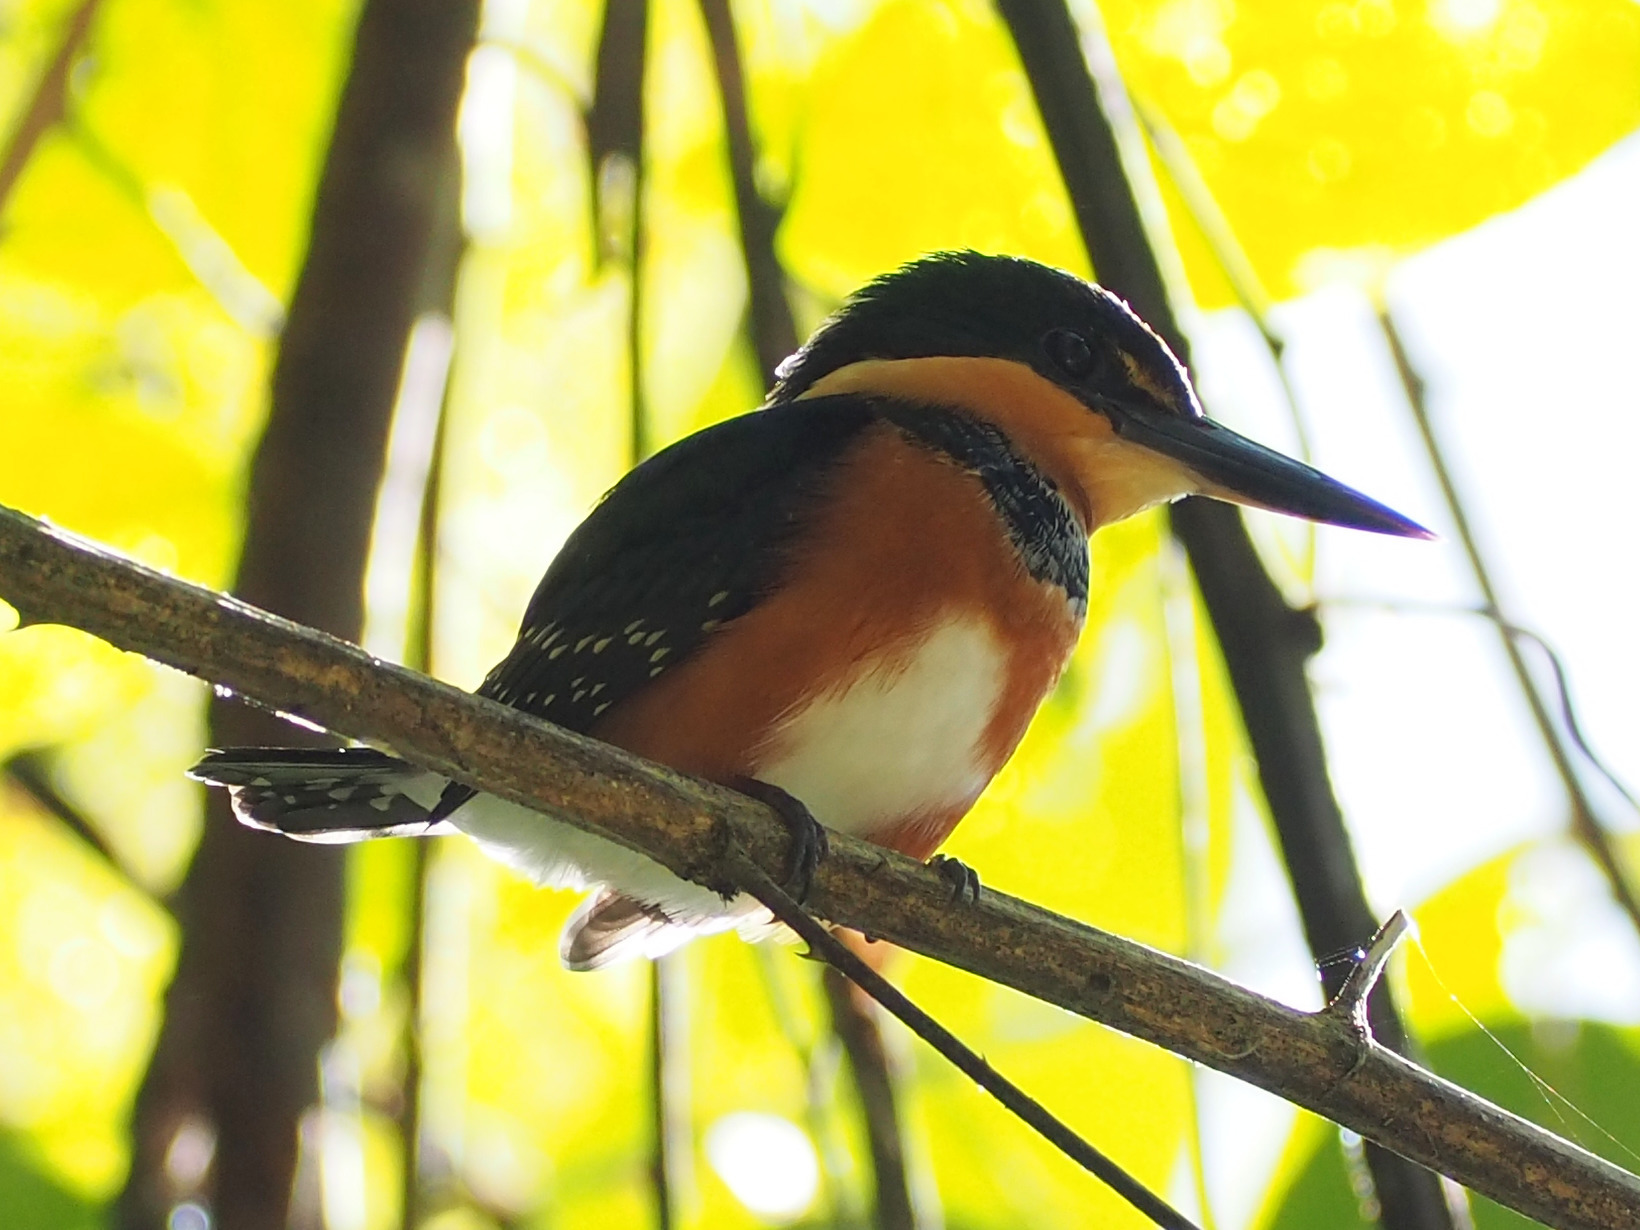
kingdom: Animalia
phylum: Chordata
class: Aves
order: Coraciiformes
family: Alcedinidae
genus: Chloroceryle
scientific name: Chloroceryle aenea
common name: American pygmy kingfisher
